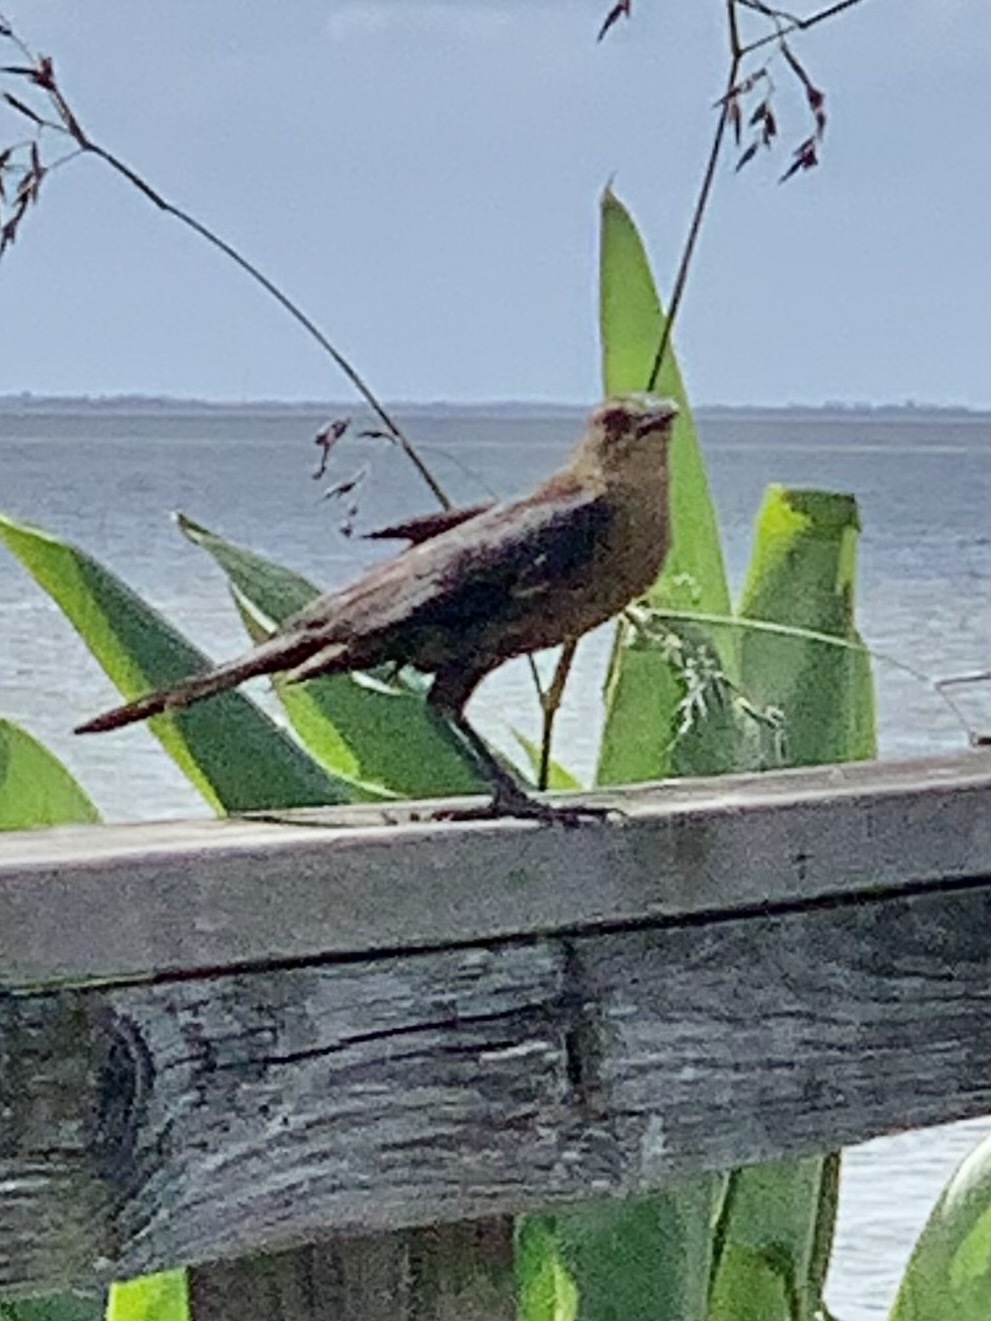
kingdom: Animalia
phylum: Chordata
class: Aves
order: Passeriformes
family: Icteridae
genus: Quiscalus
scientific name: Quiscalus major
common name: Boat-tailed grackle
